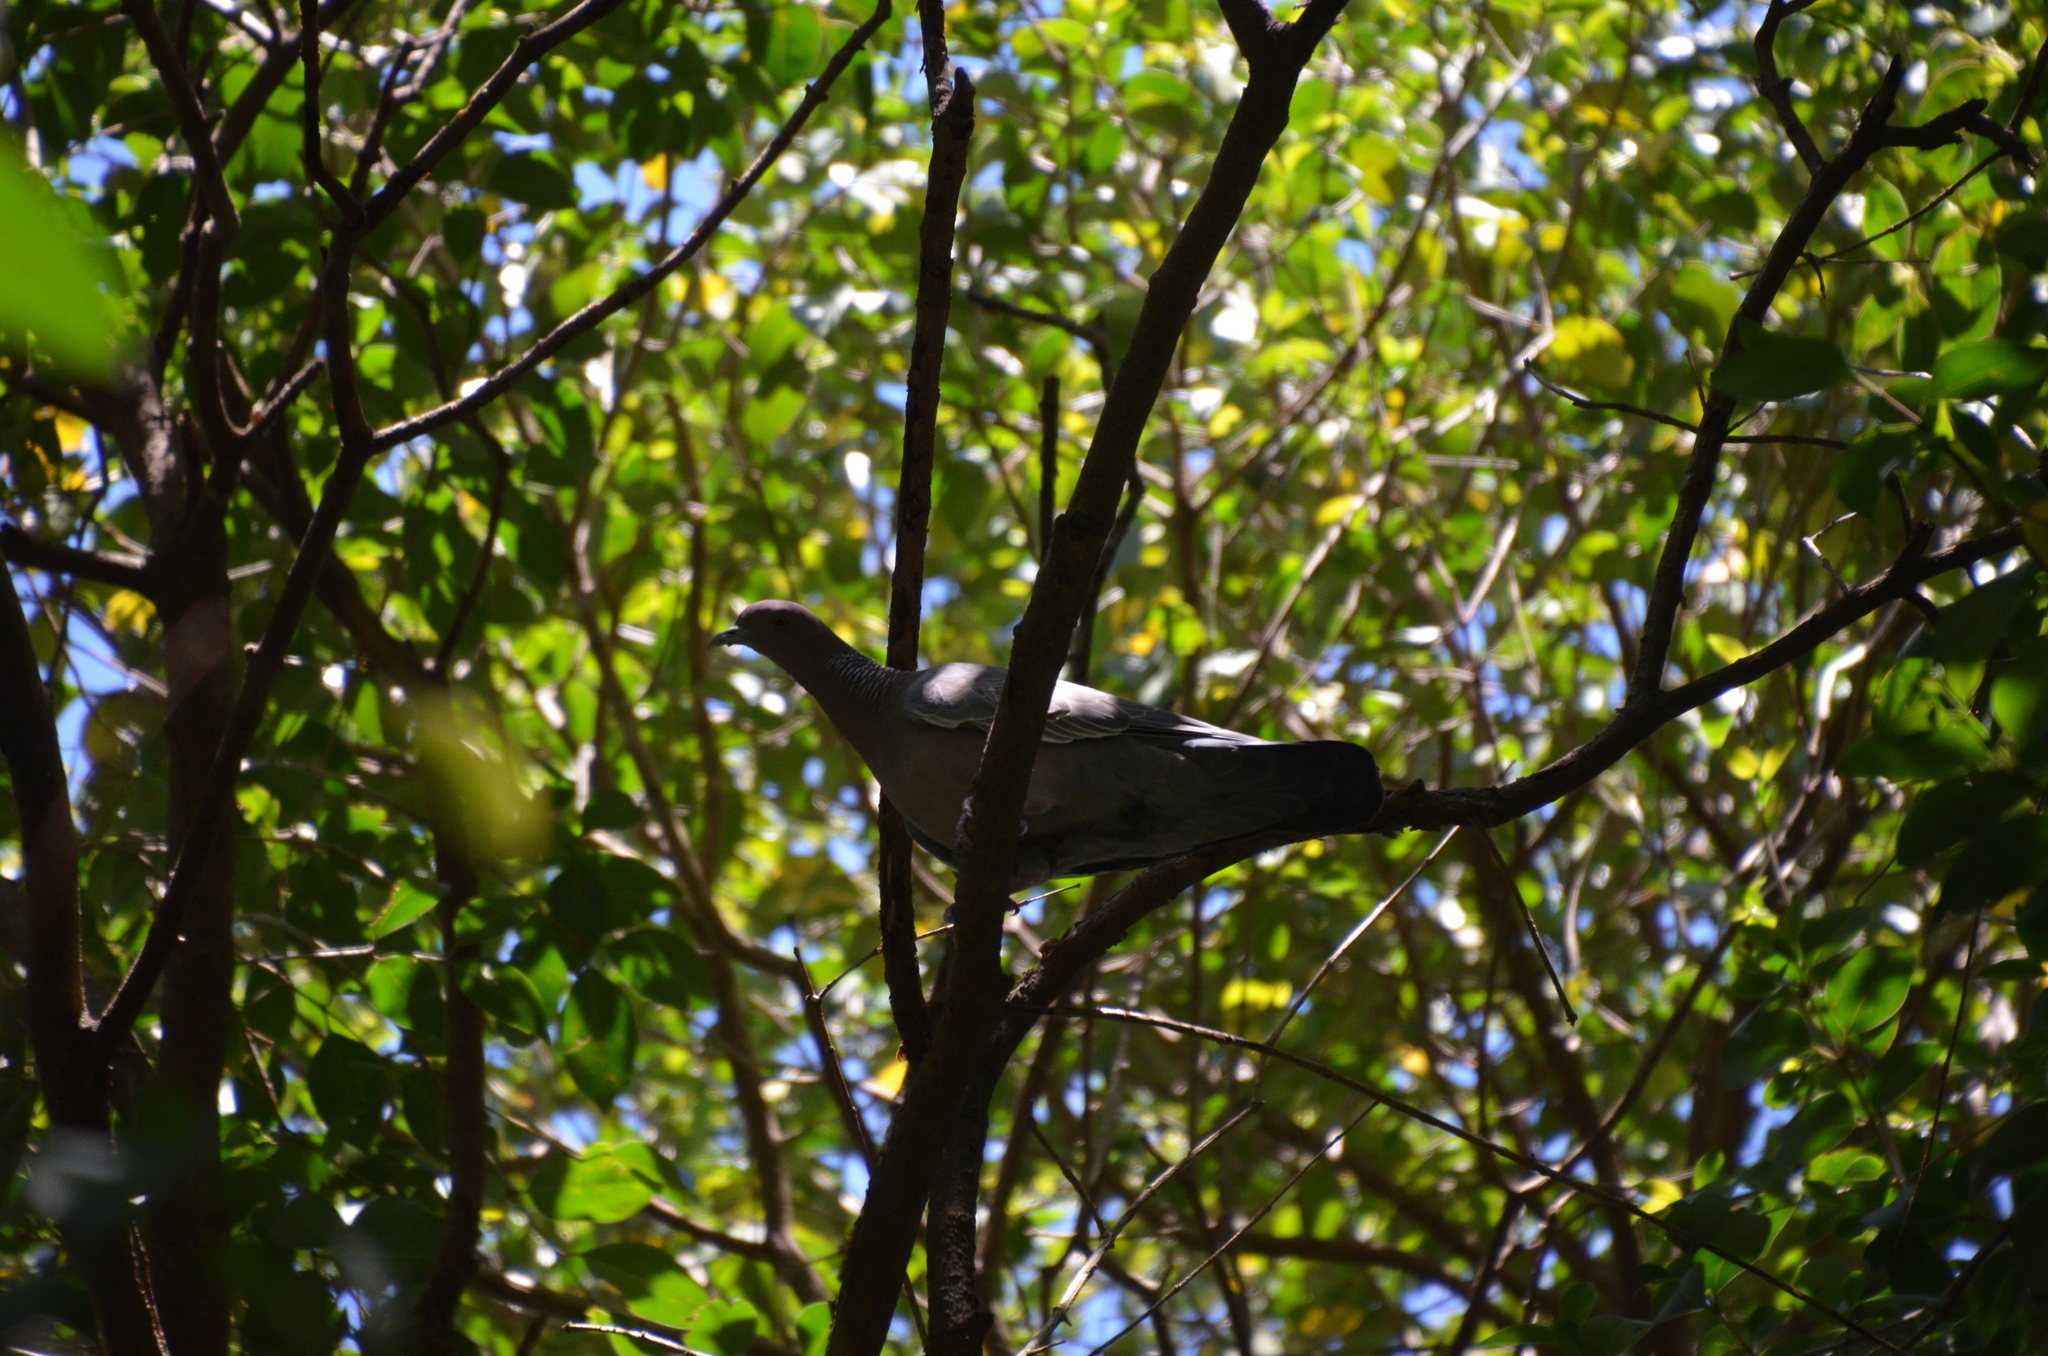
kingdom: Animalia
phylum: Chordata
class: Aves
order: Columbiformes
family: Columbidae
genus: Patagioenas
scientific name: Patagioenas picazuro
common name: Picazuro pigeon
